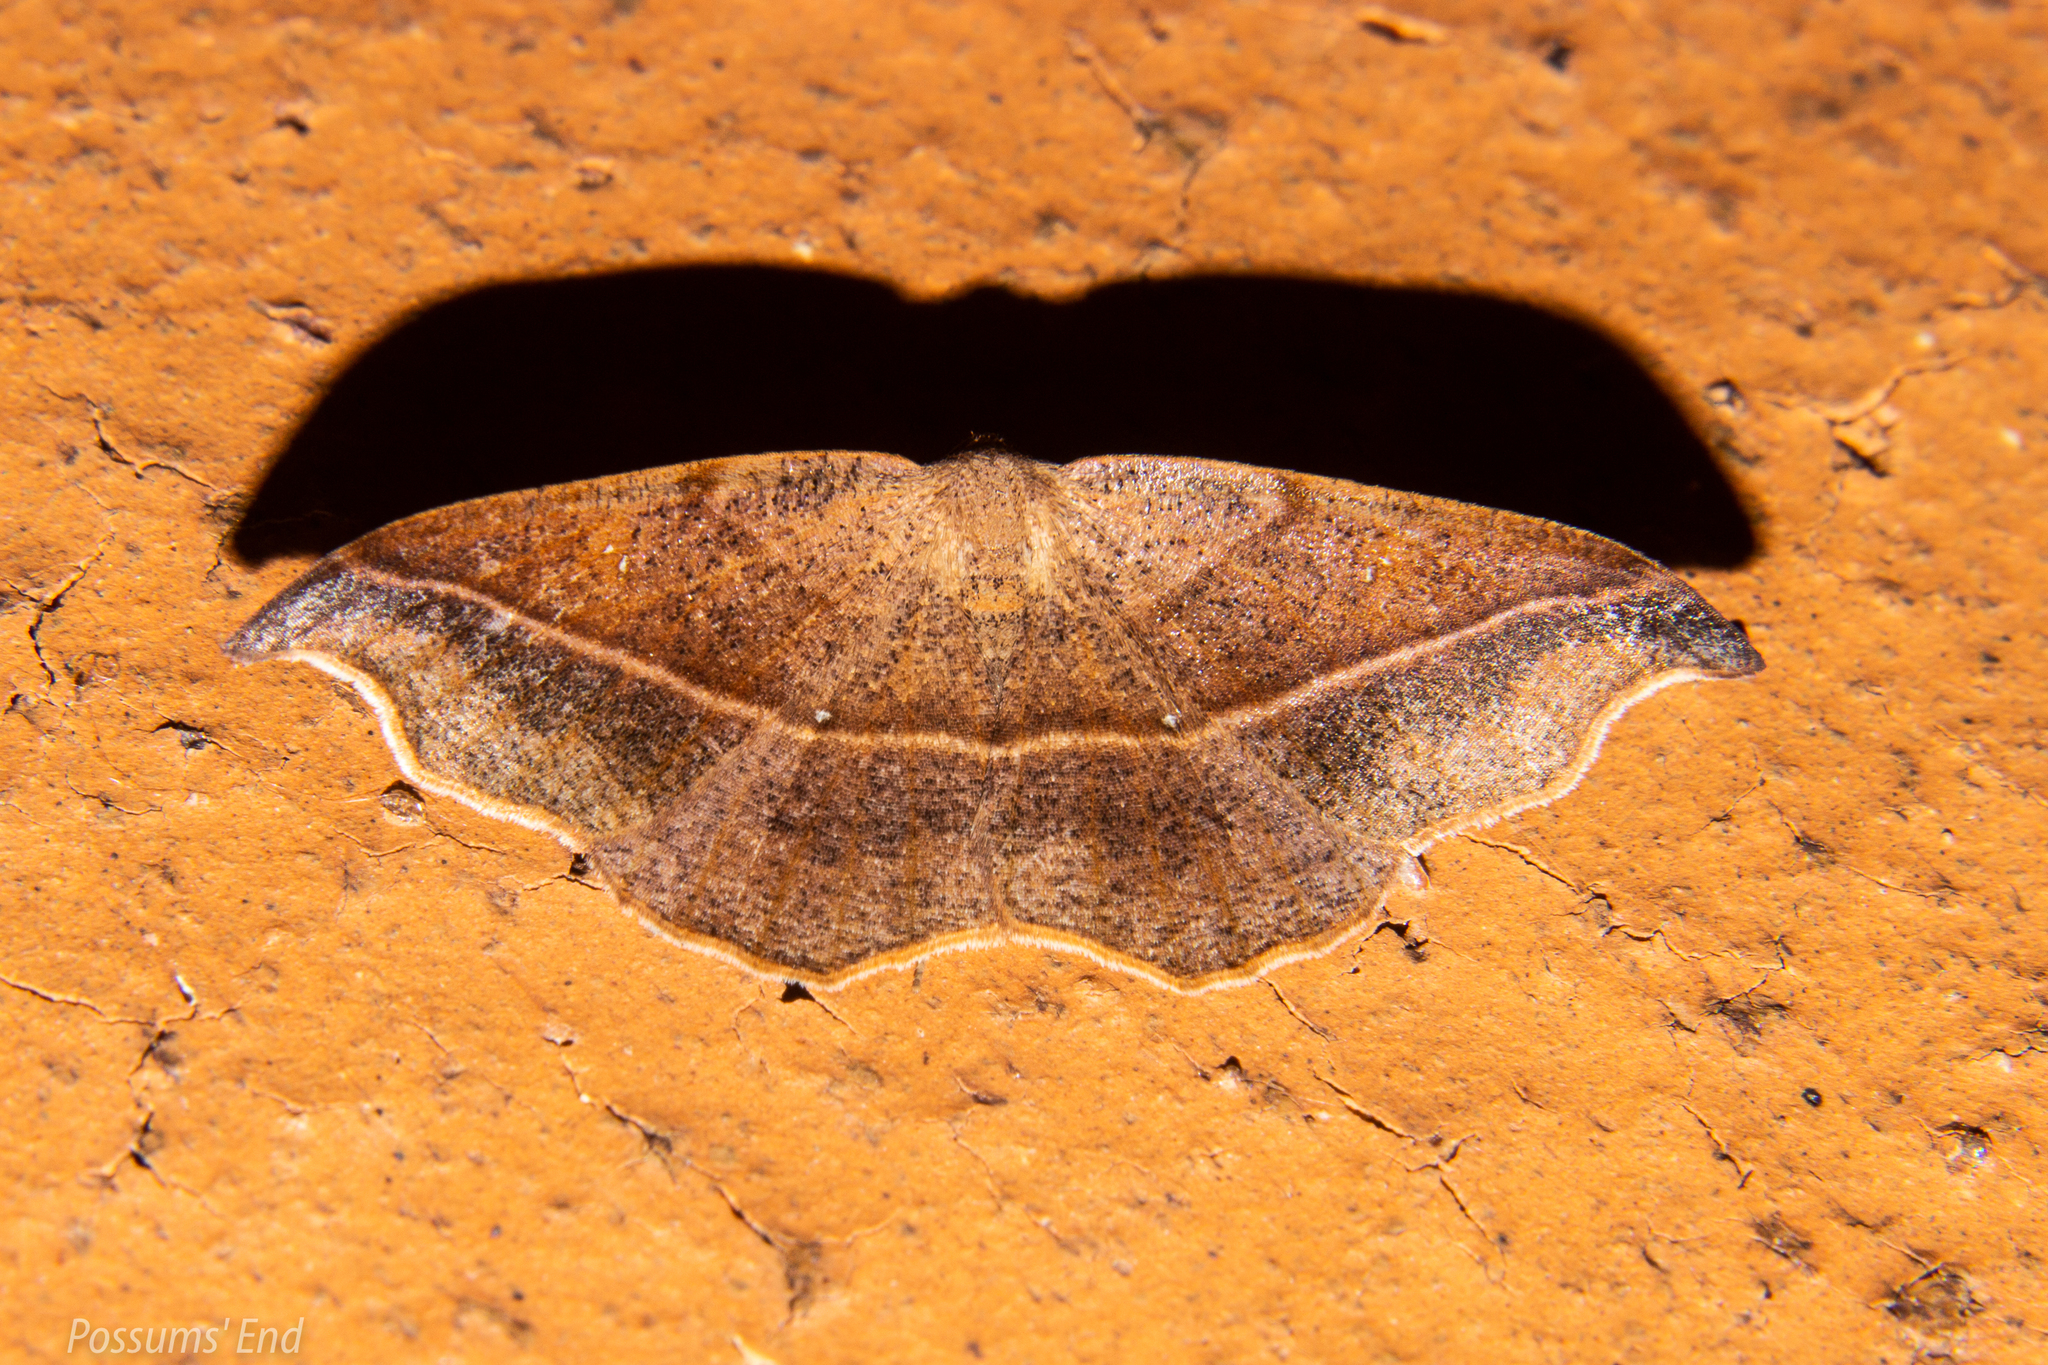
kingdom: Animalia
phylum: Arthropoda
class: Insecta
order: Lepidoptera
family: Geometridae
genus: Sarisa
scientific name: Sarisa muriferata
